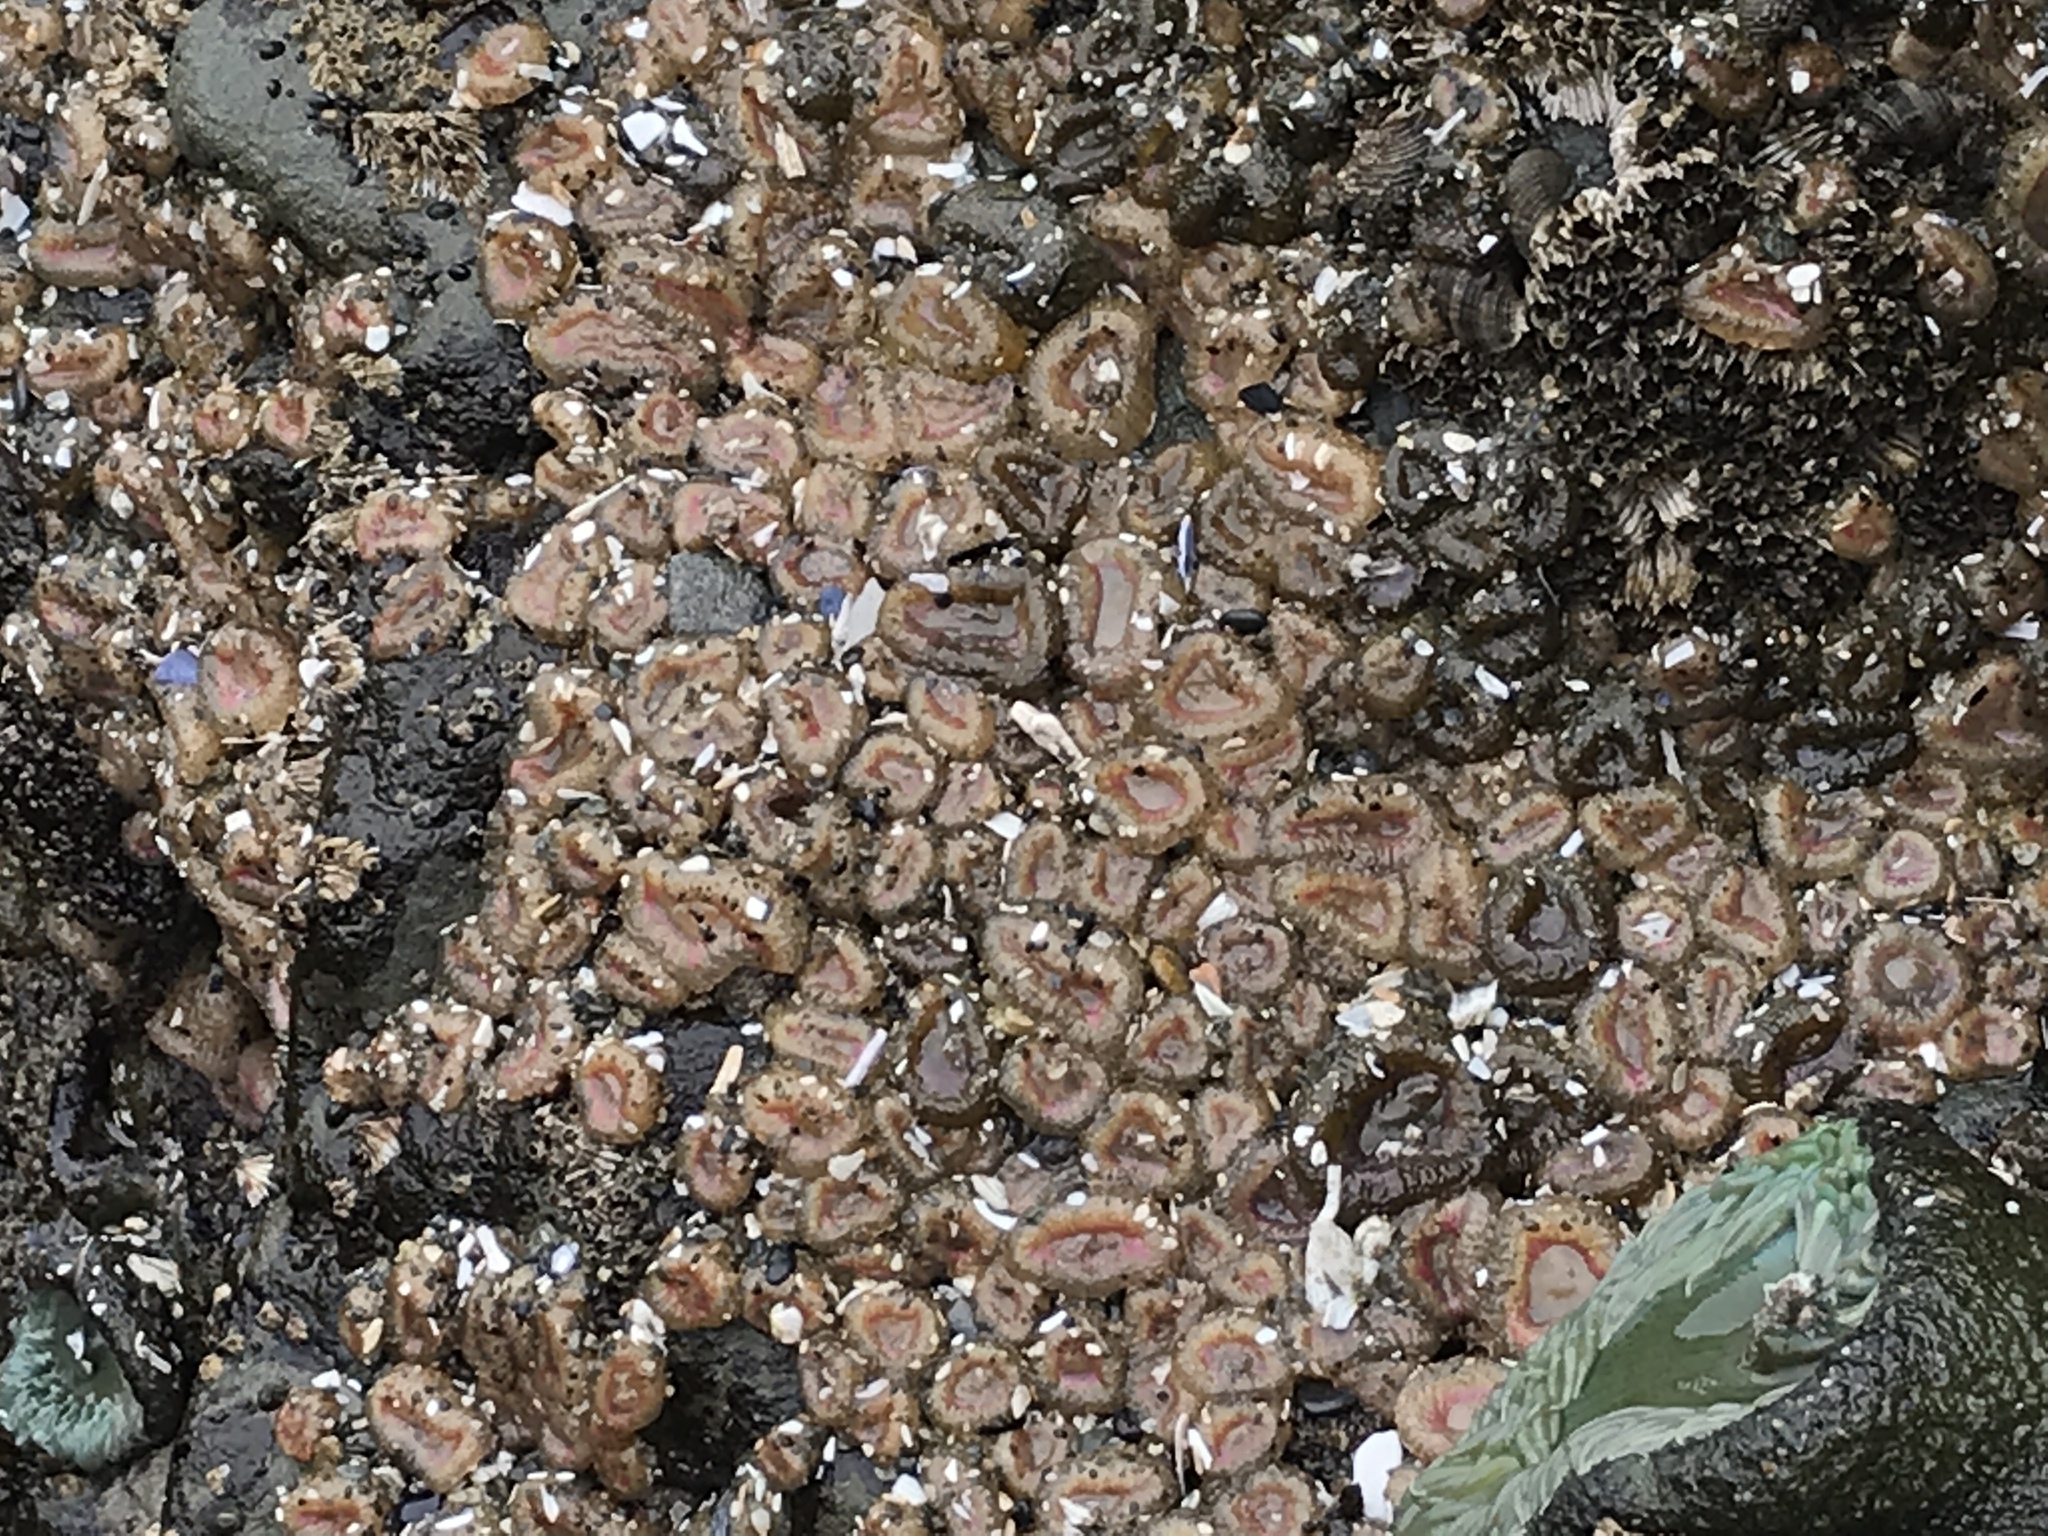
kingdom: Animalia
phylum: Cnidaria
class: Anthozoa
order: Actiniaria
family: Actiniidae
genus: Anthopleura
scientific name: Anthopleura elegantissima
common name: Clonal anemone
